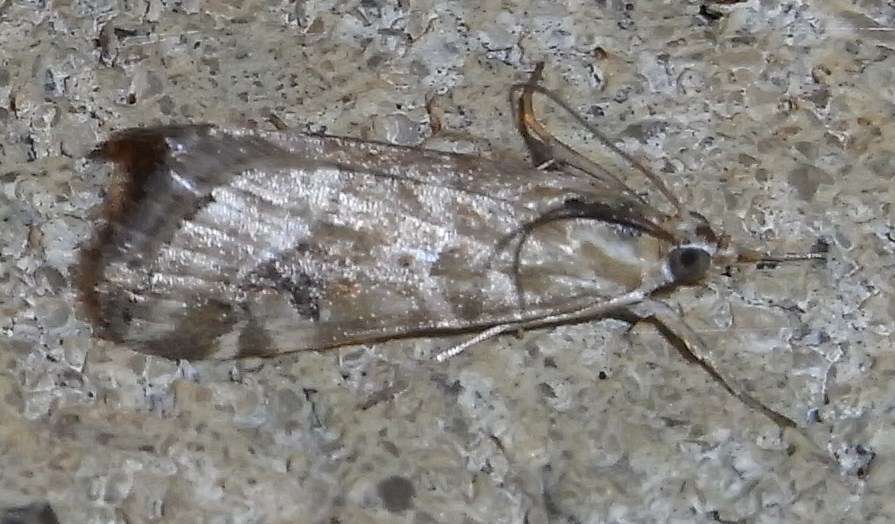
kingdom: Animalia
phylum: Arthropoda
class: Insecta
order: Lepidoptera
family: Crambidae
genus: Hellula
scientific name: Hellula hydralis
